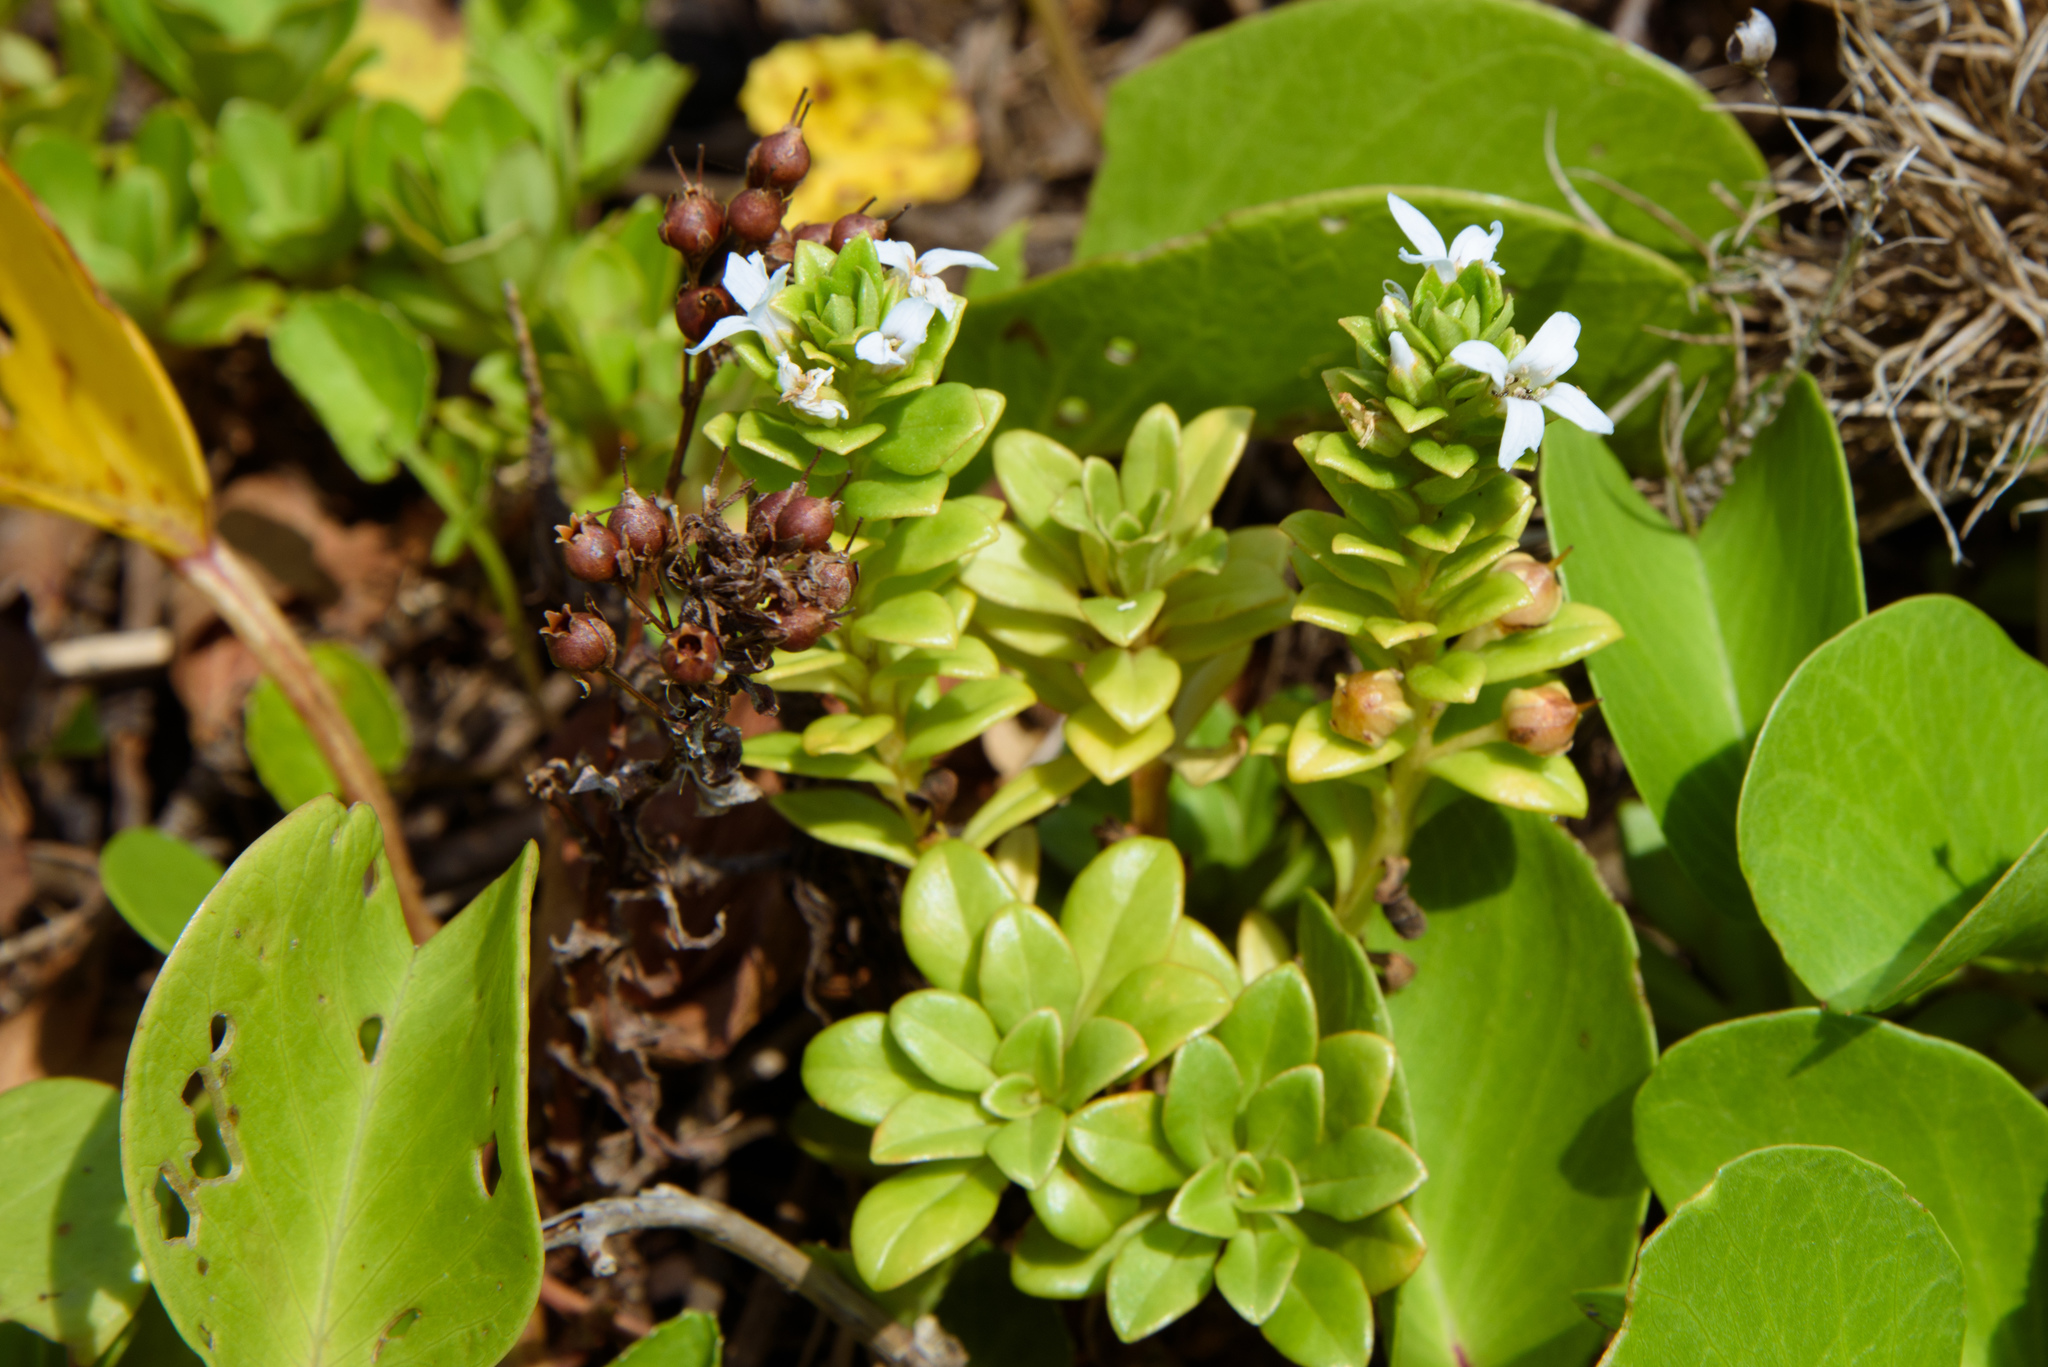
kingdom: Plantae
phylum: Tracheophyta
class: Magnoliopsida
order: Ericales
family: Primulaceae
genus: Lysimachia
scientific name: Lysimachia mauritiana
